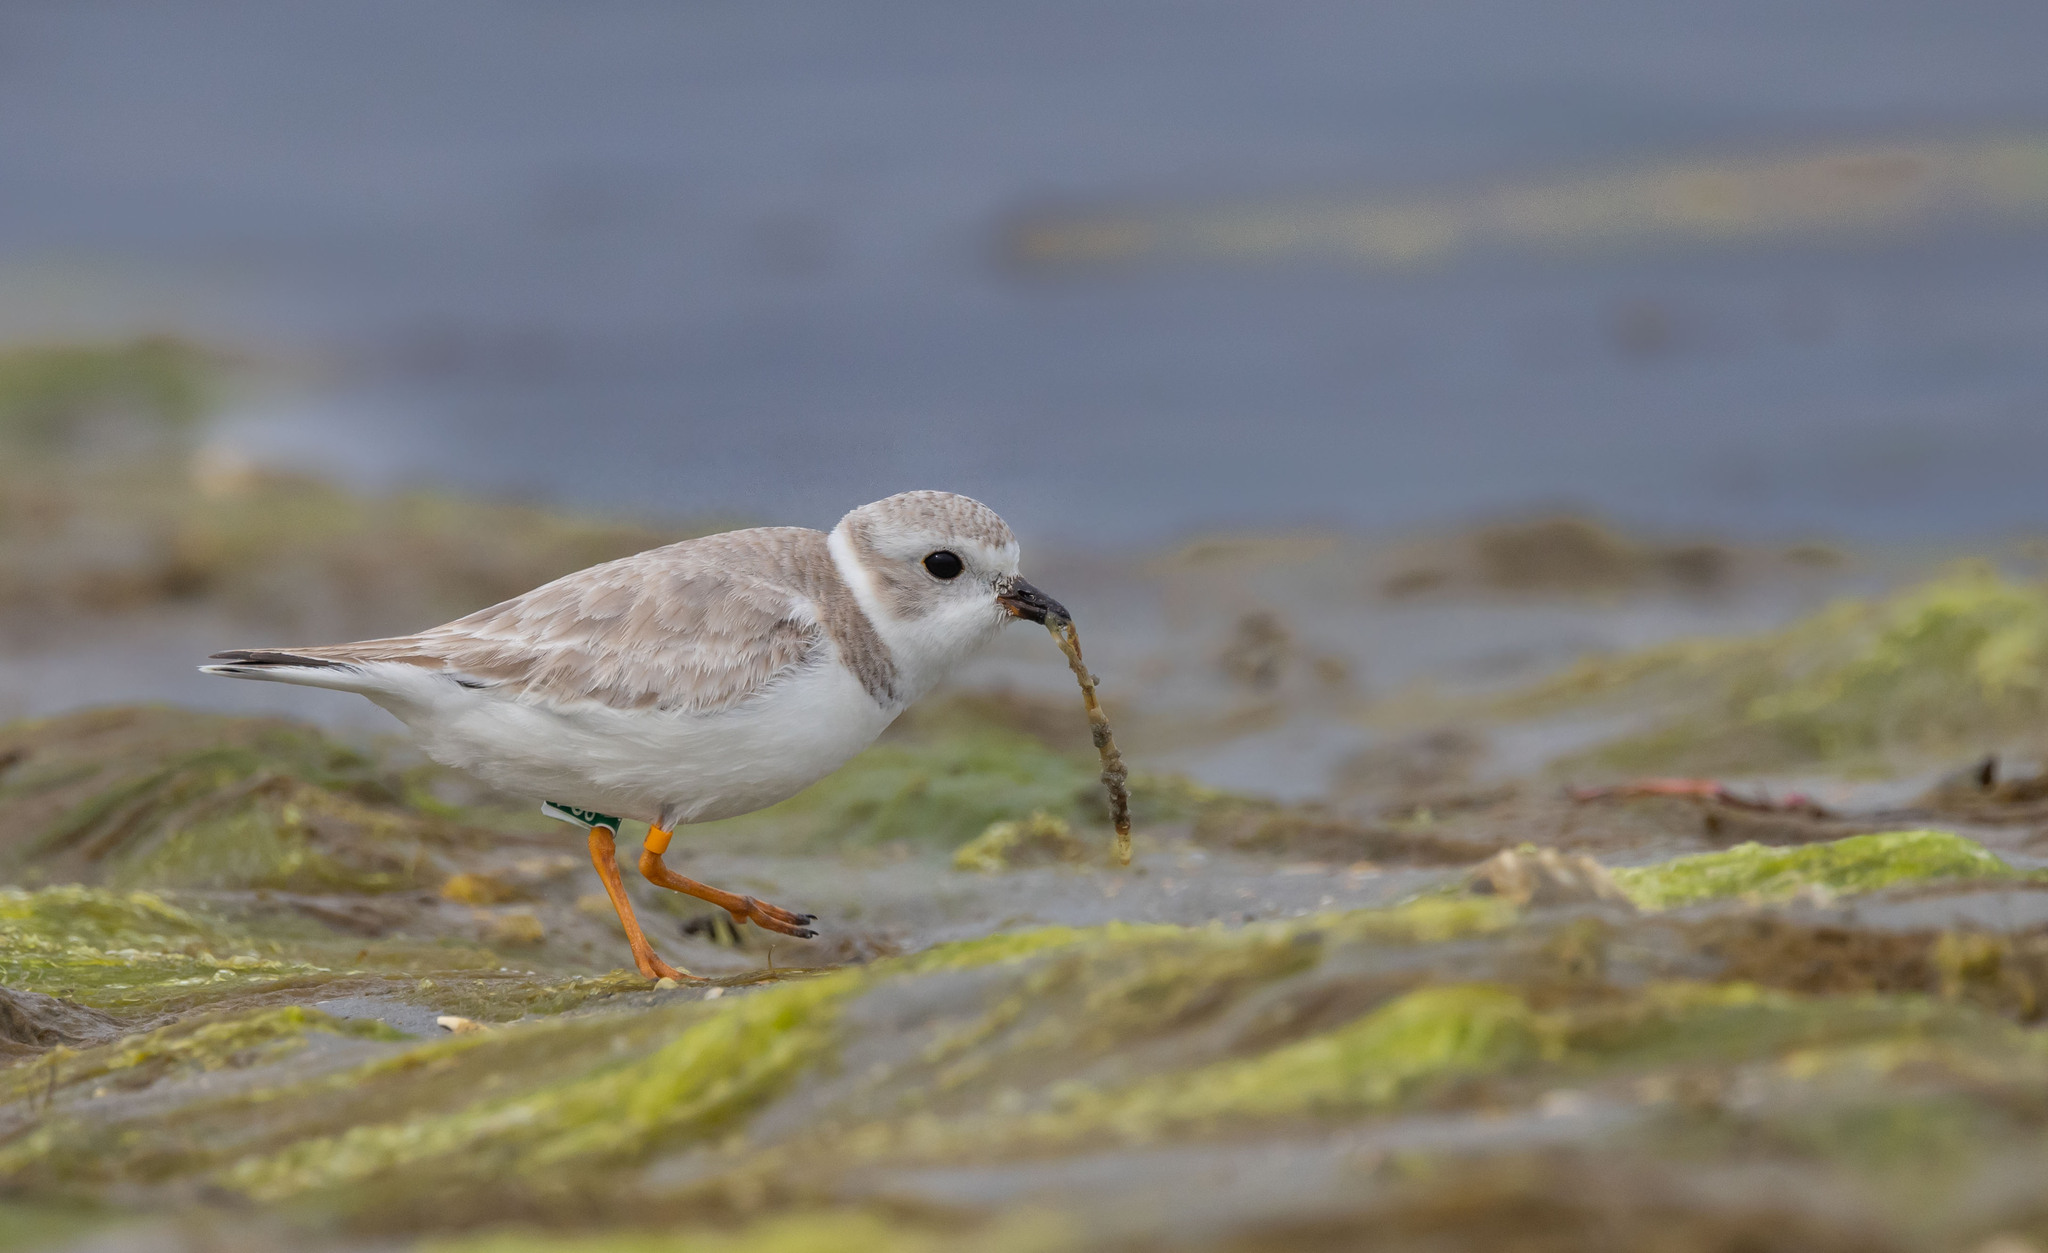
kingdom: Animalia
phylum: Chordata
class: Aves
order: Charadriiformes
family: Charadriidae
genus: Charadrius
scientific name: Charadrius melodus
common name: Piping plover
